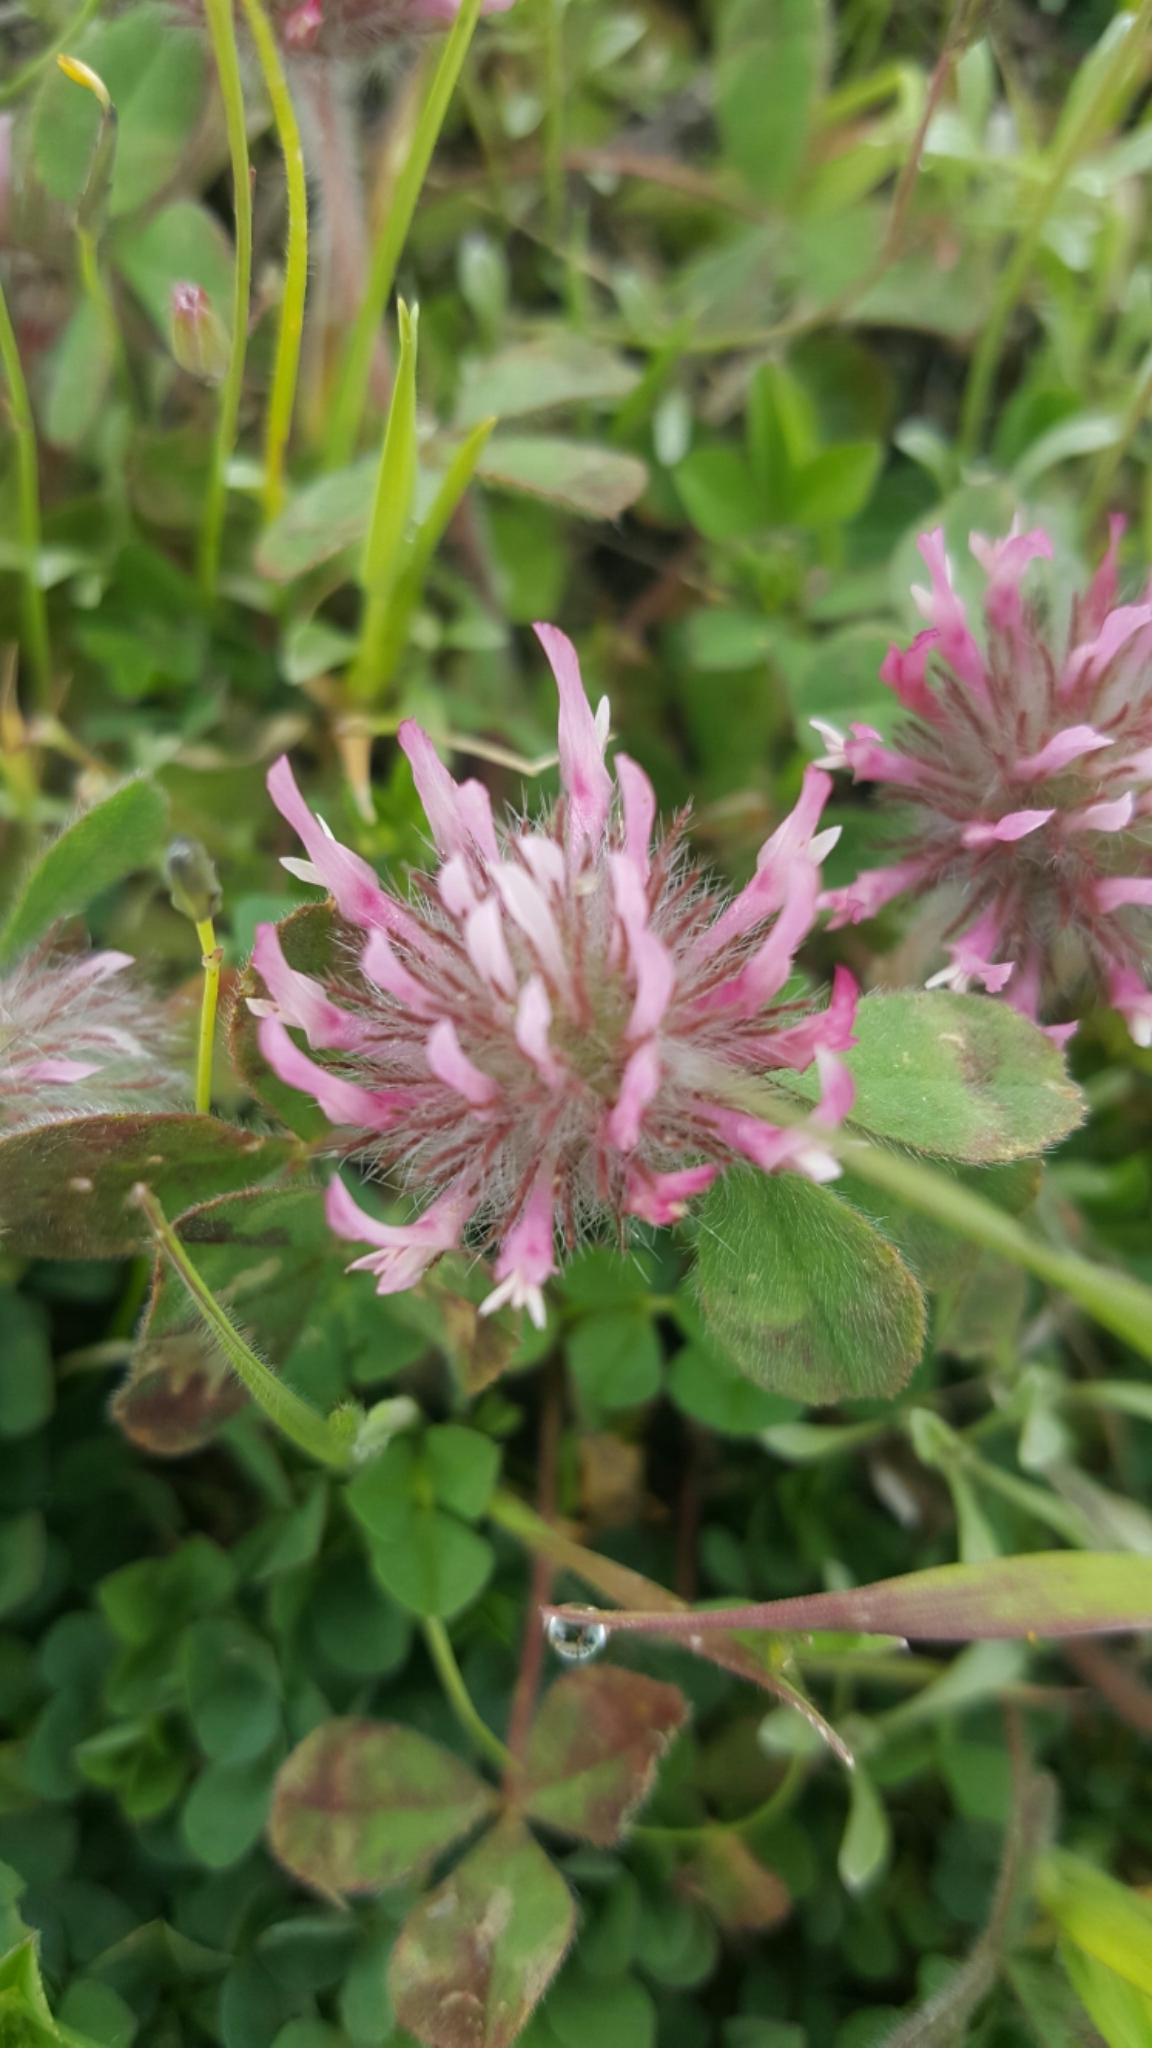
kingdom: Plantae
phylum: Tracheophyta
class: Magnoliopsida
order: Fabales
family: Fabaceae
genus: Trifolium
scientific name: Trifolium hirtum
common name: Rose clover
